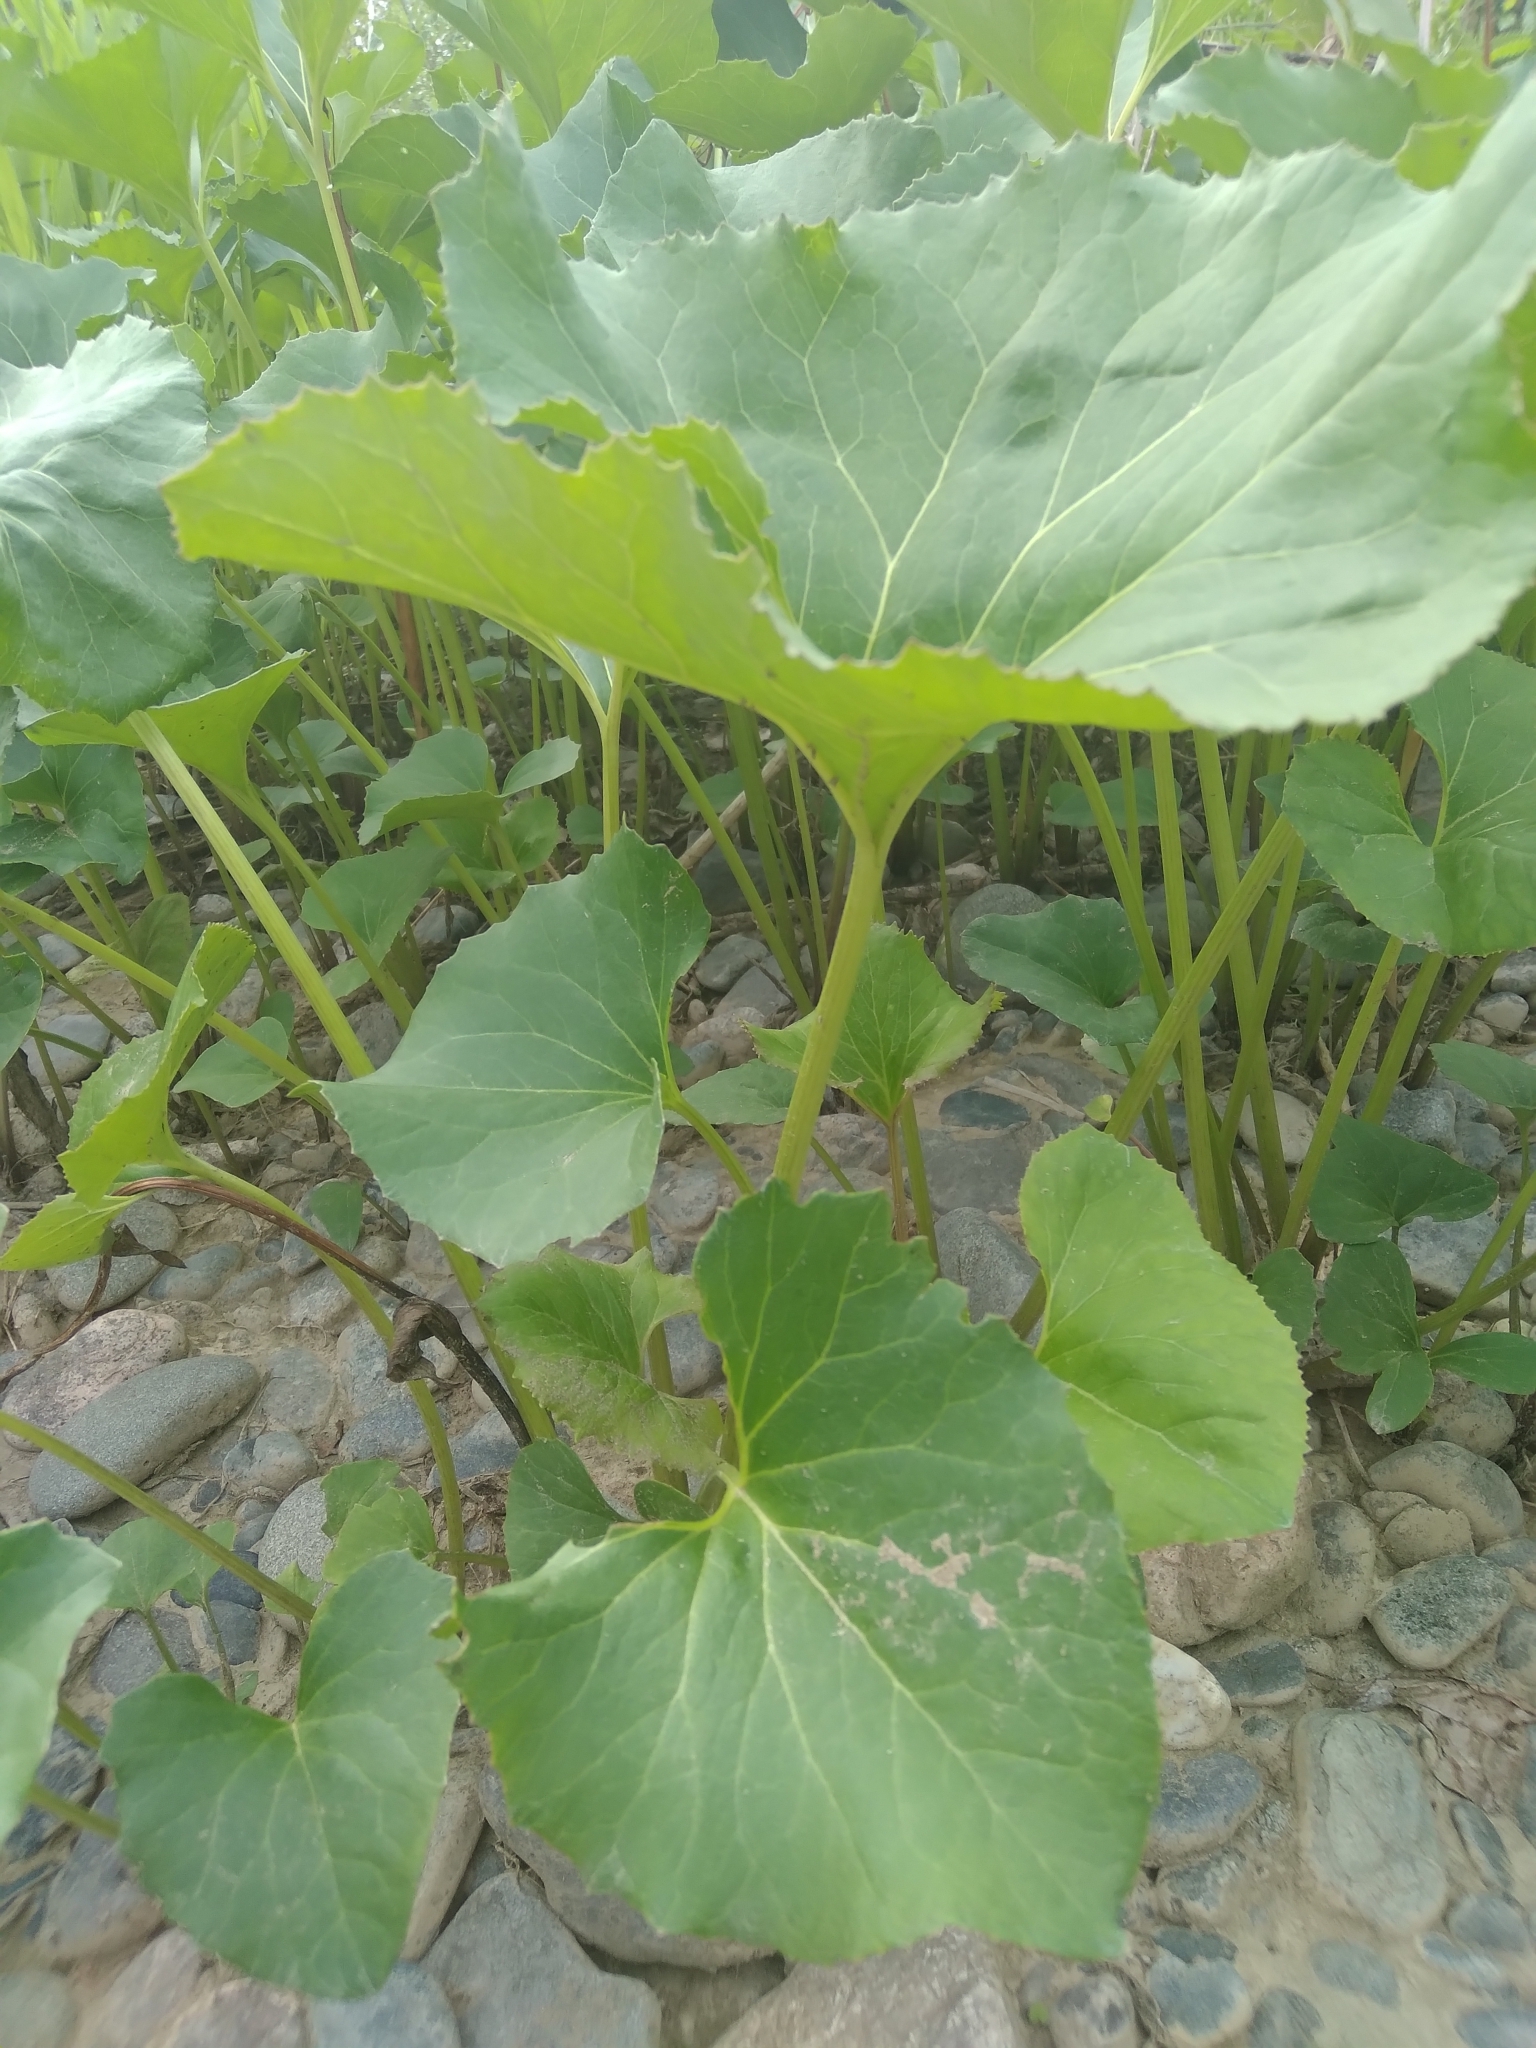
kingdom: Plantae
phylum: Tracheophyta
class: Magnoliopsida
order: Asterales
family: Asteraceae
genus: Petasites
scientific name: Petasites radiatus
